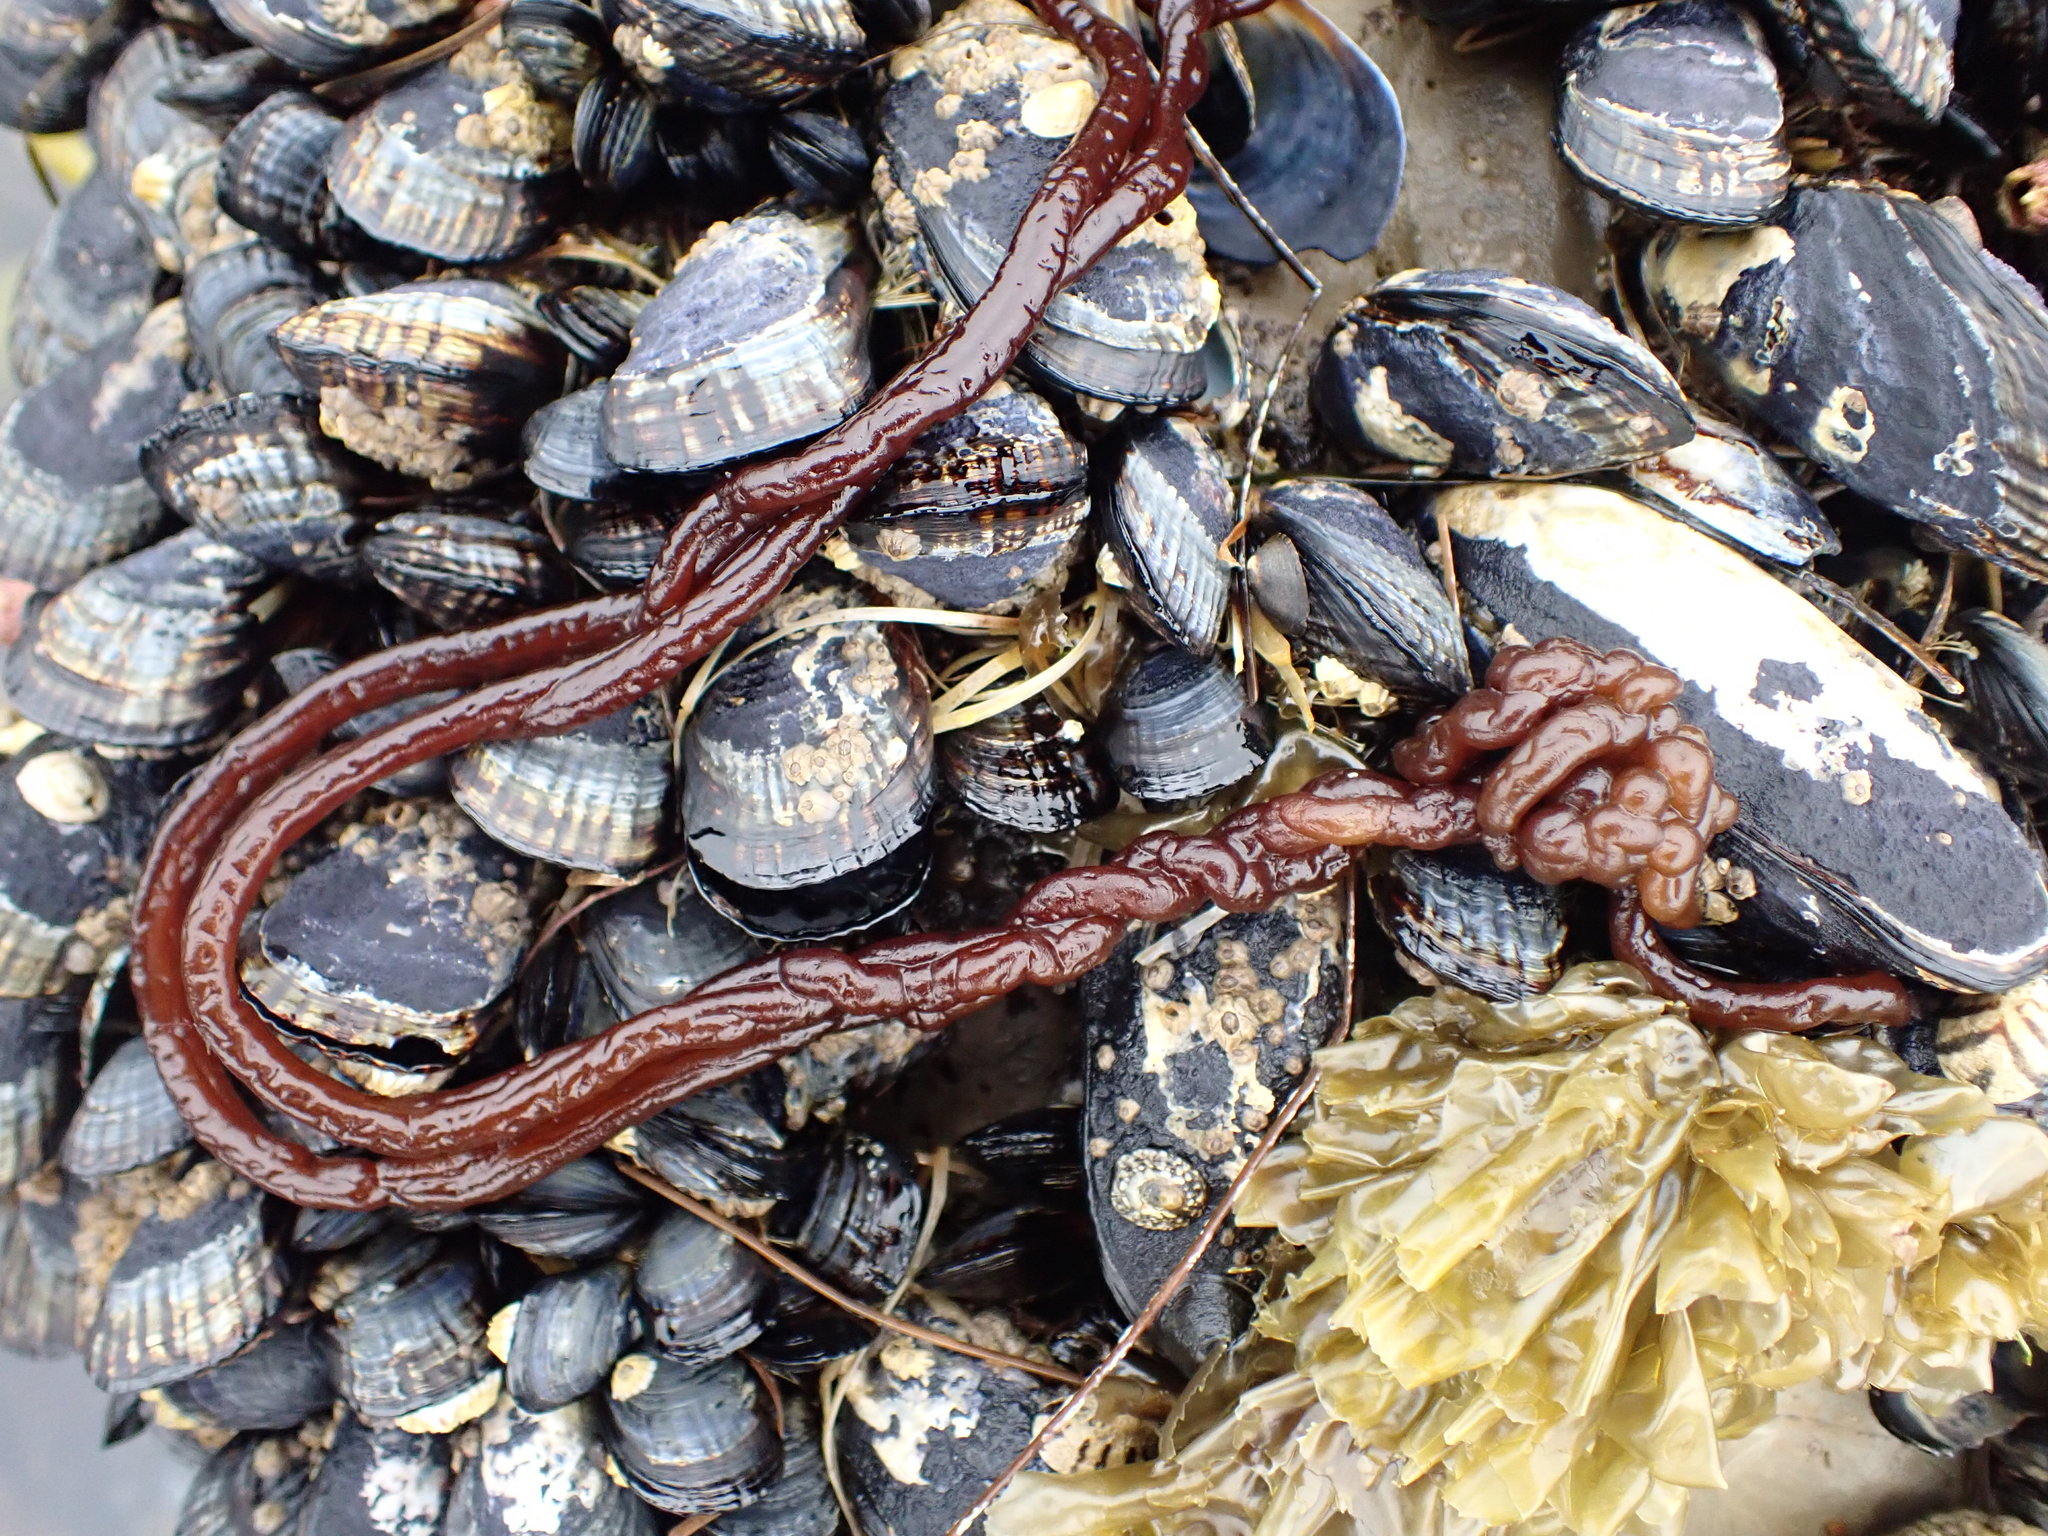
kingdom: Plantae
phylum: Rhodophyta
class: Florideophyceae
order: Nemaliales
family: Nemaliaceae
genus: Nemalion
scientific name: Nemalion elminthoides
